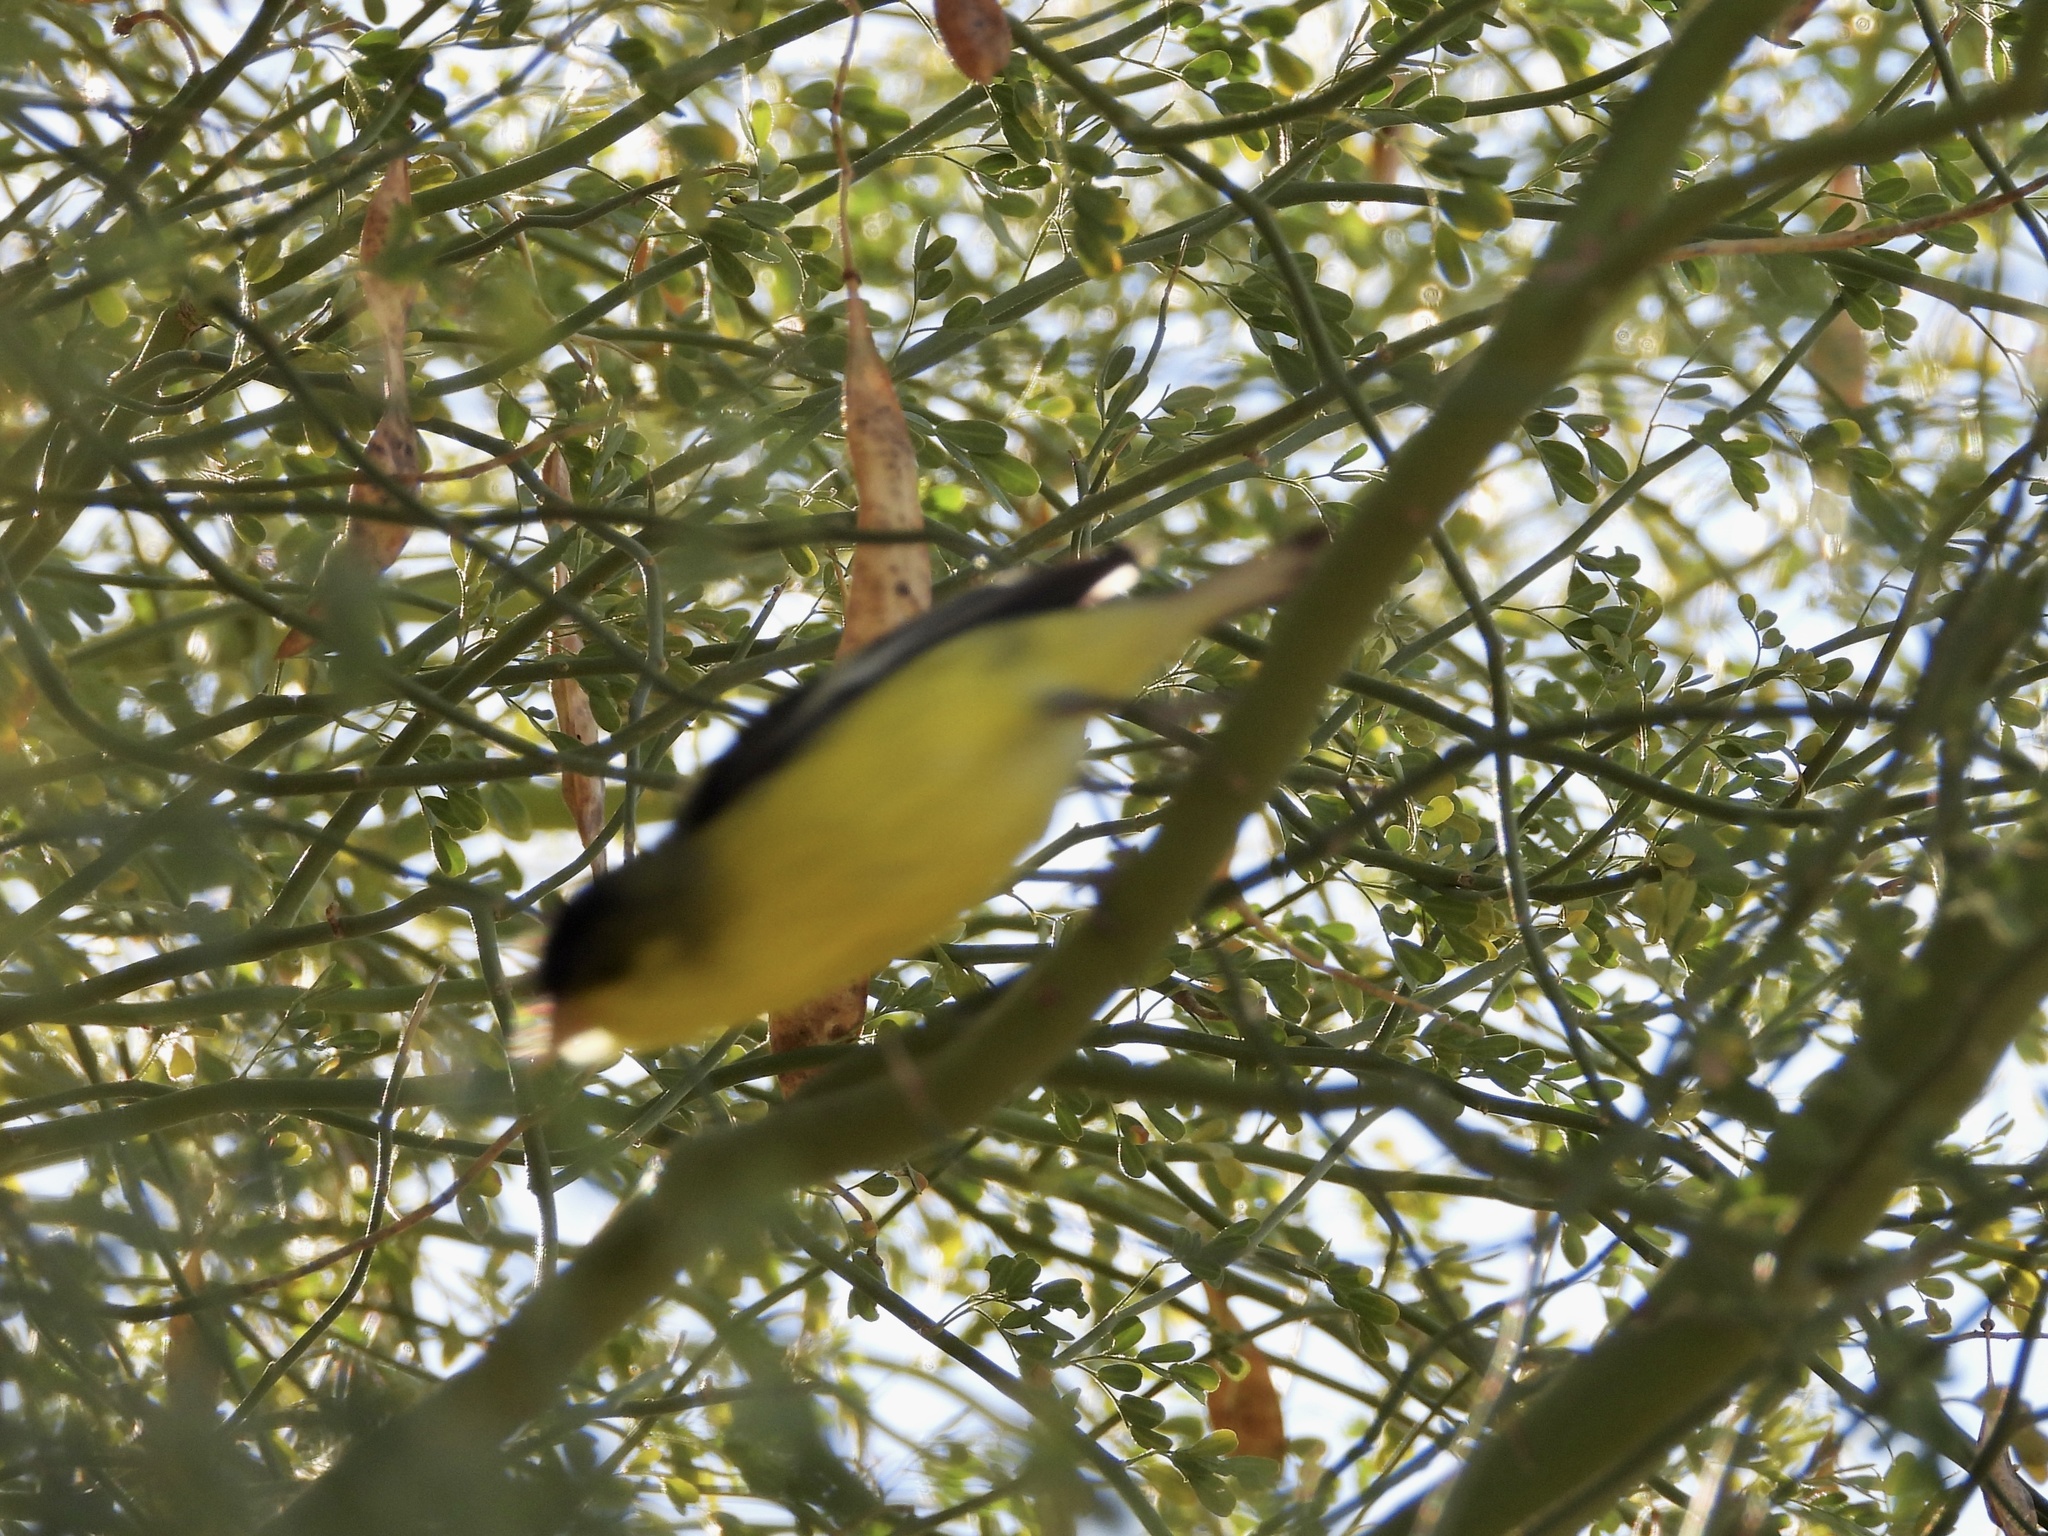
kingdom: Animalia
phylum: Chordata
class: Aves
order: Passeriformes
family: Fringillidae
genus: Spinus
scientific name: Spinus psaltria
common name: Lesser goldfinch
